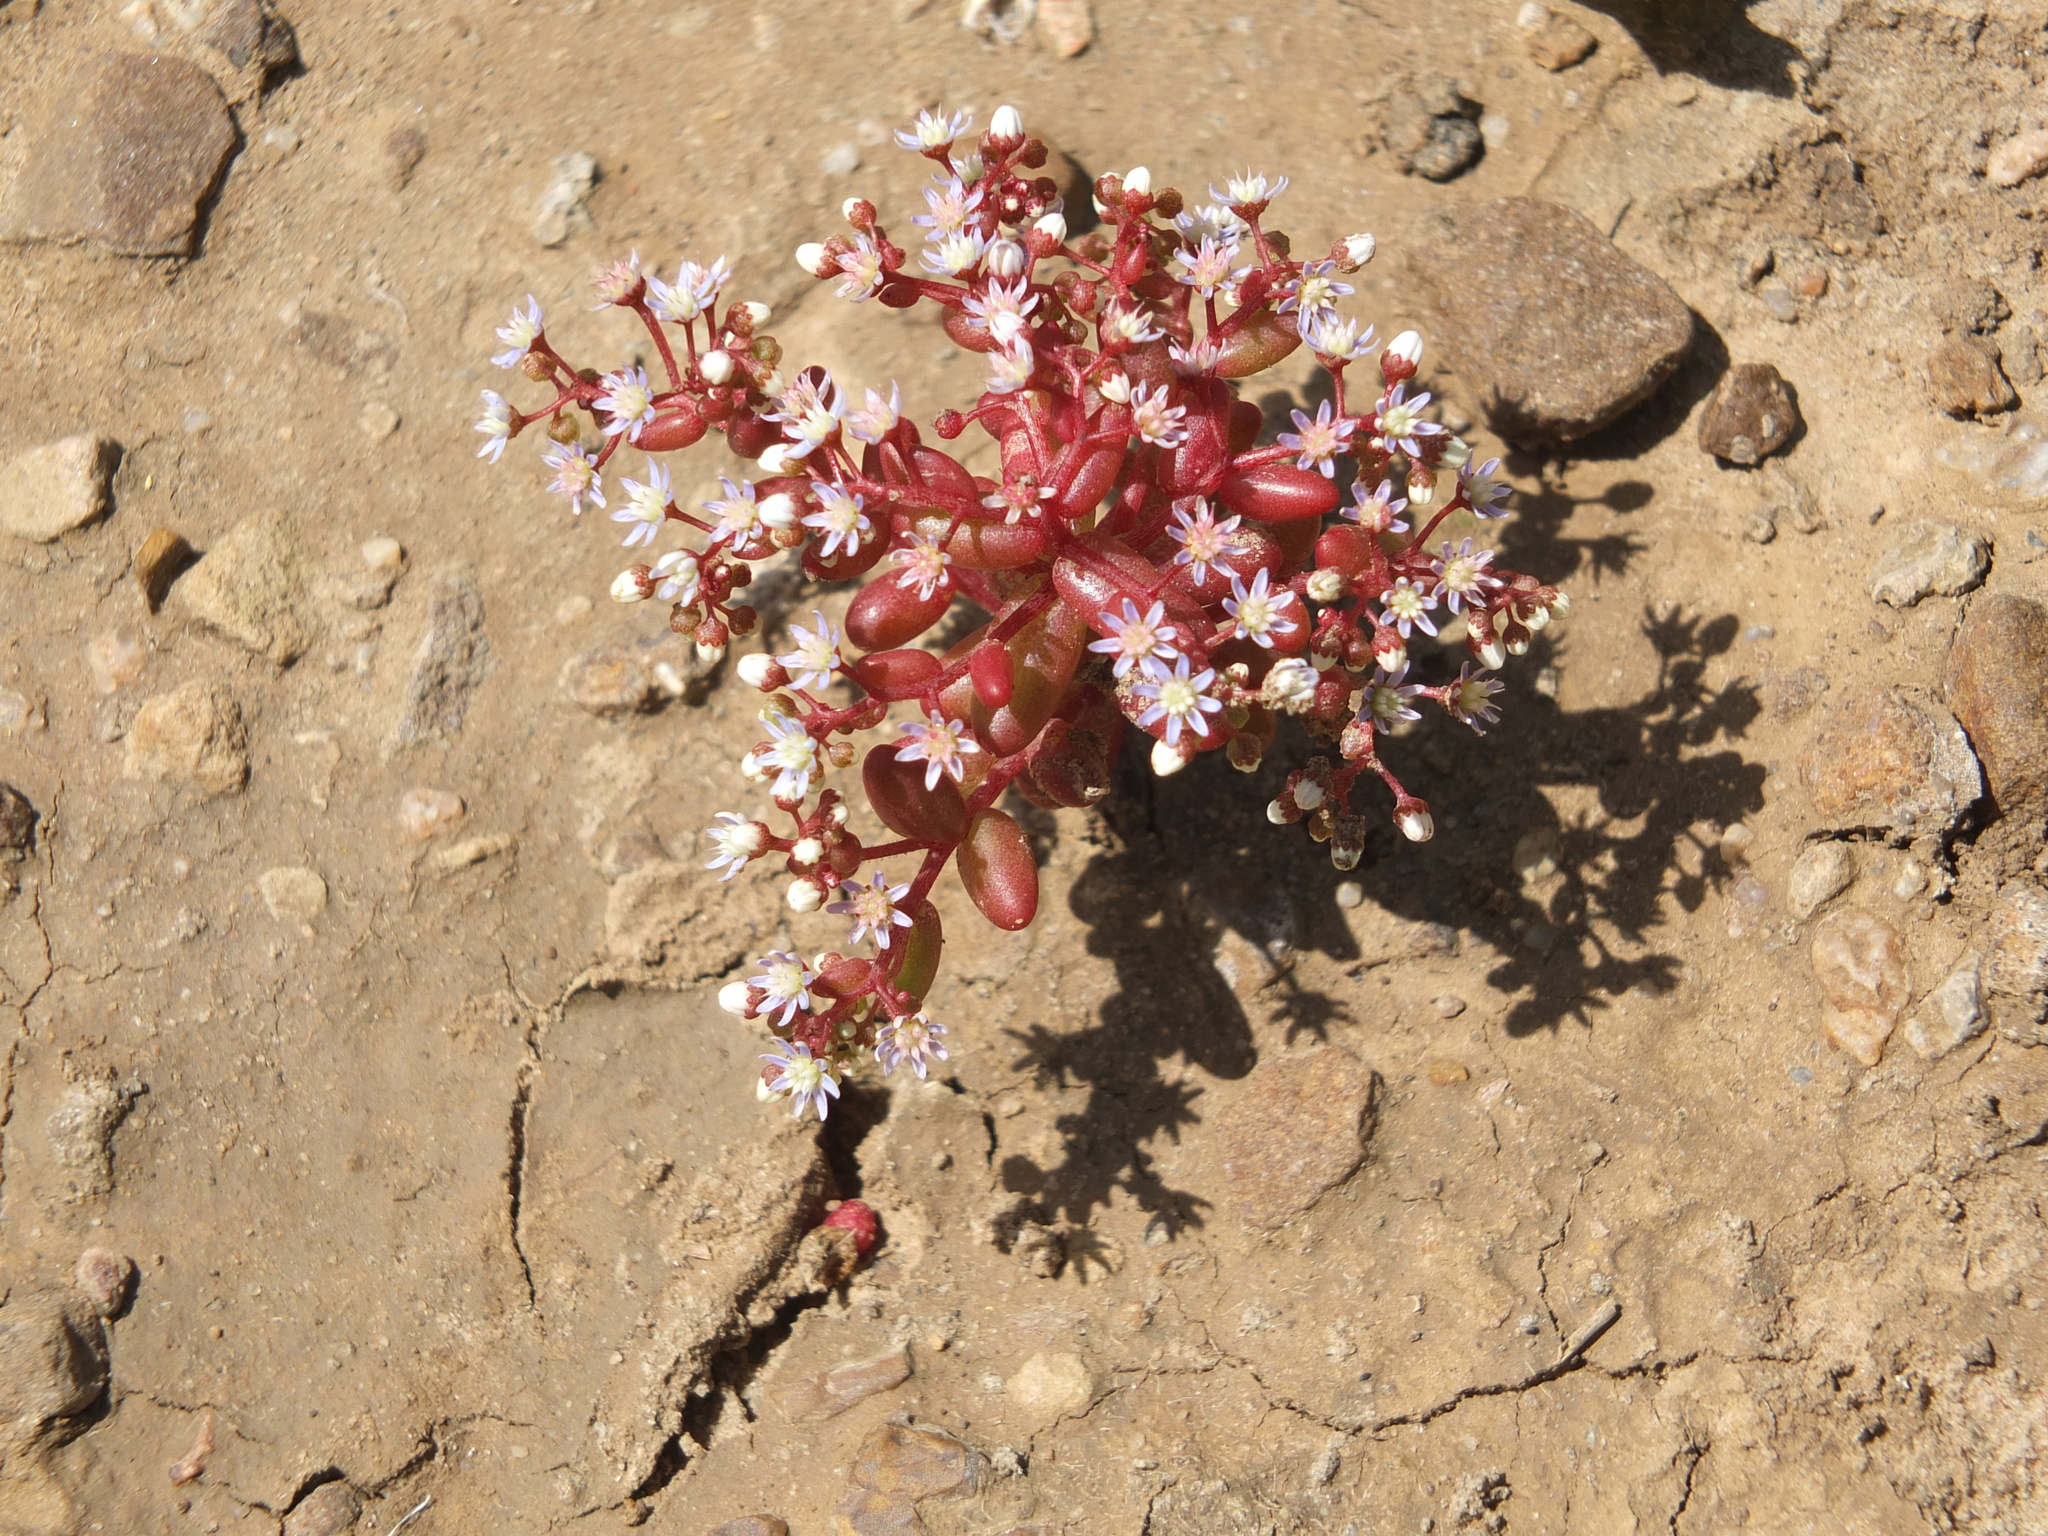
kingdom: Plantae
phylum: Tracheophyta
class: Magnoliopsida
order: Saxifragales
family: Crassulaceae
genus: Sedum
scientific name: Sedum caeruleum
